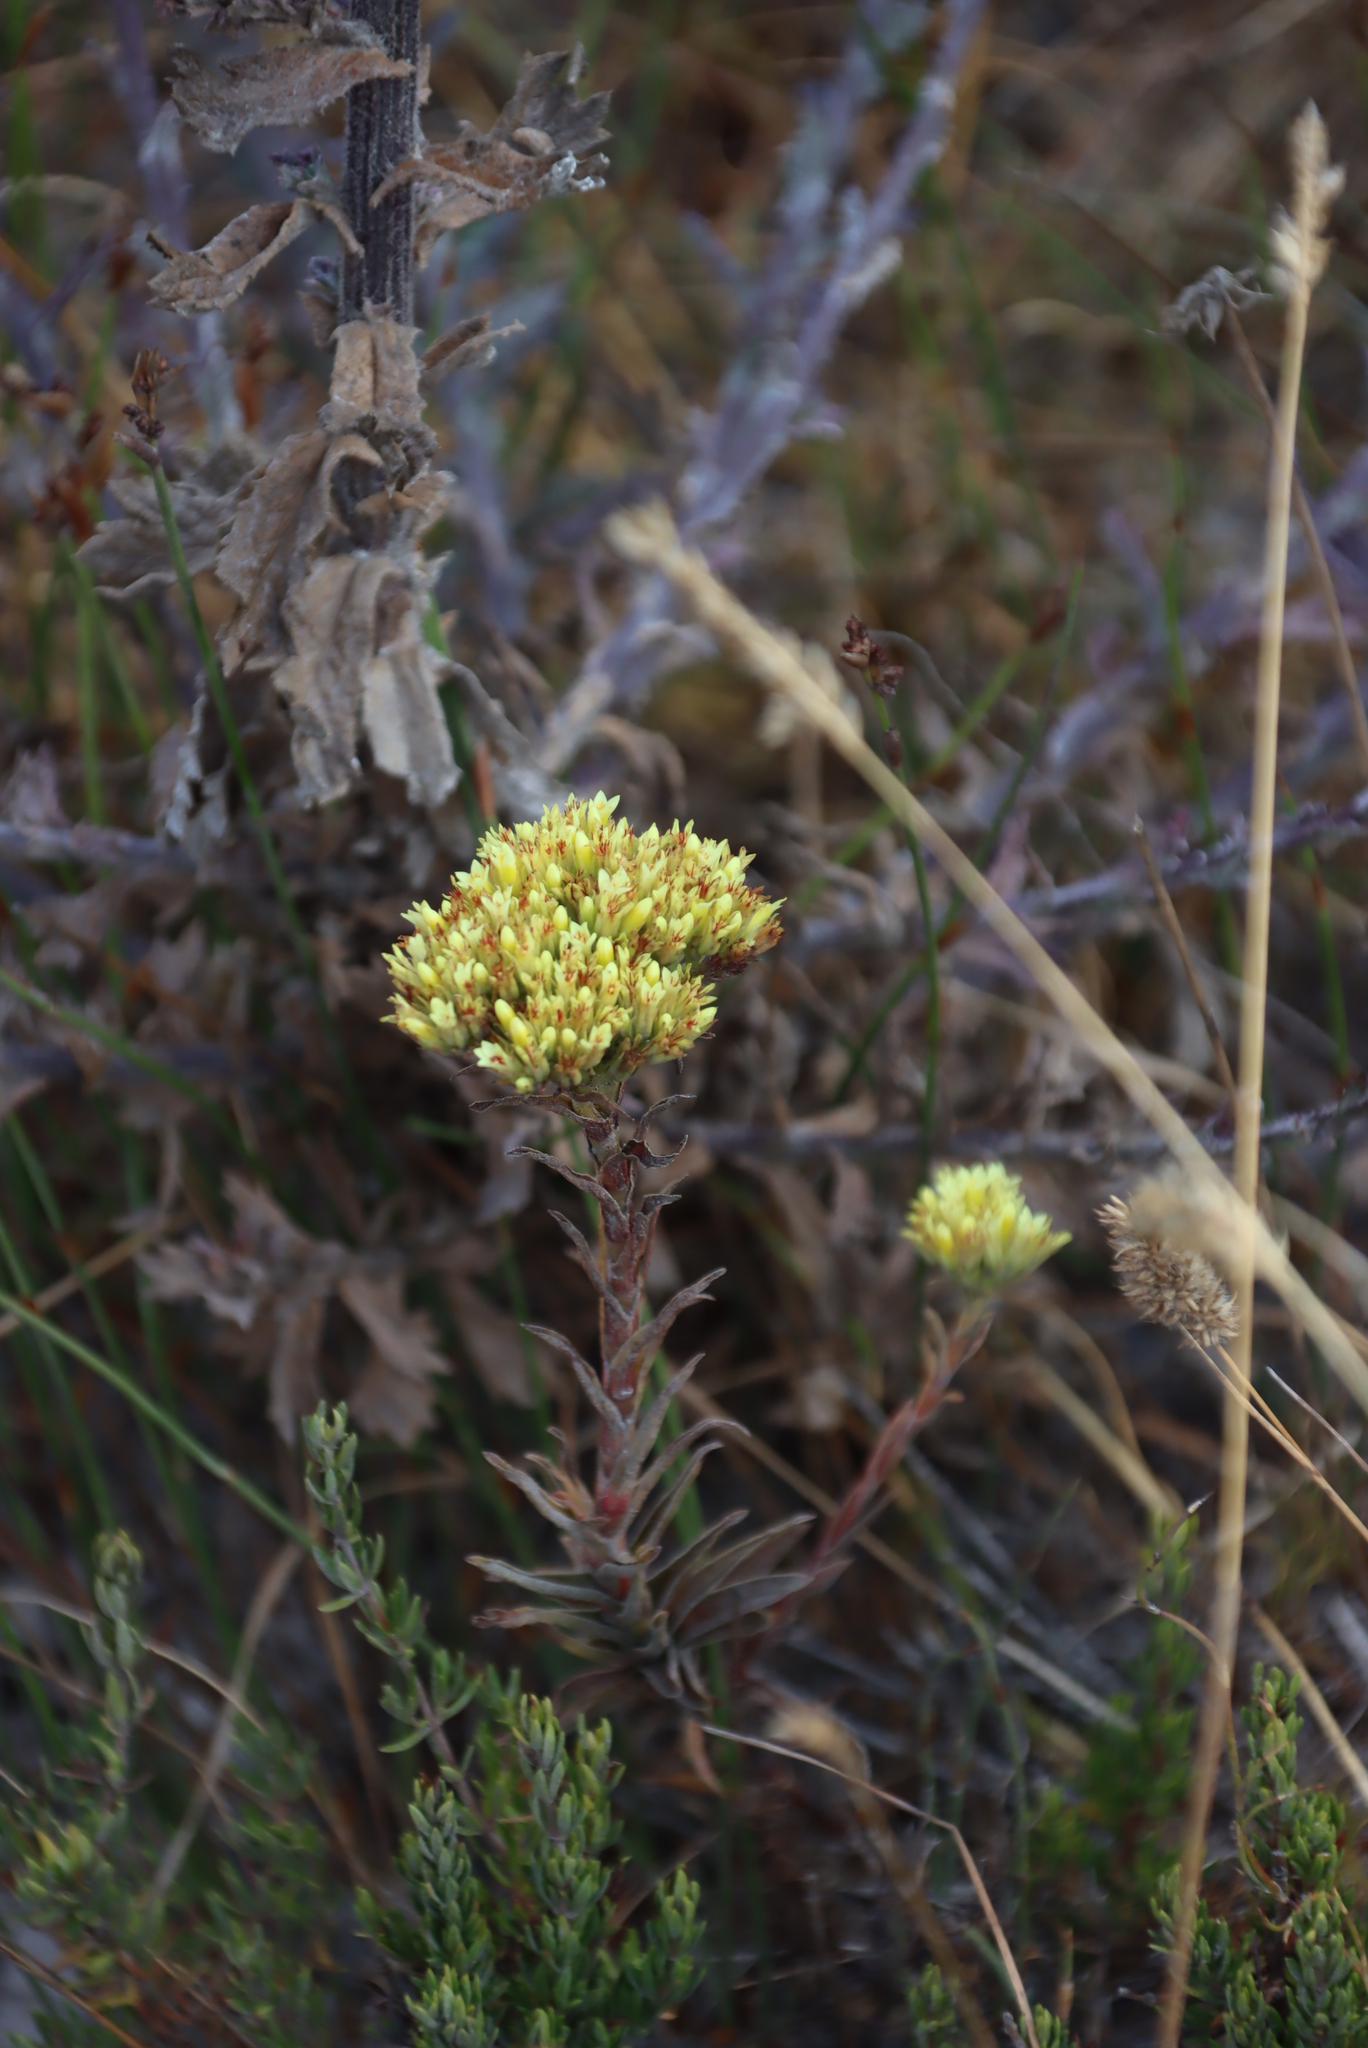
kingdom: Plantae
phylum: Tracheophyta
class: Magnoliopsida
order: Saxifragales
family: Crassulaceae
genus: Crassula
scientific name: Crassula flava
